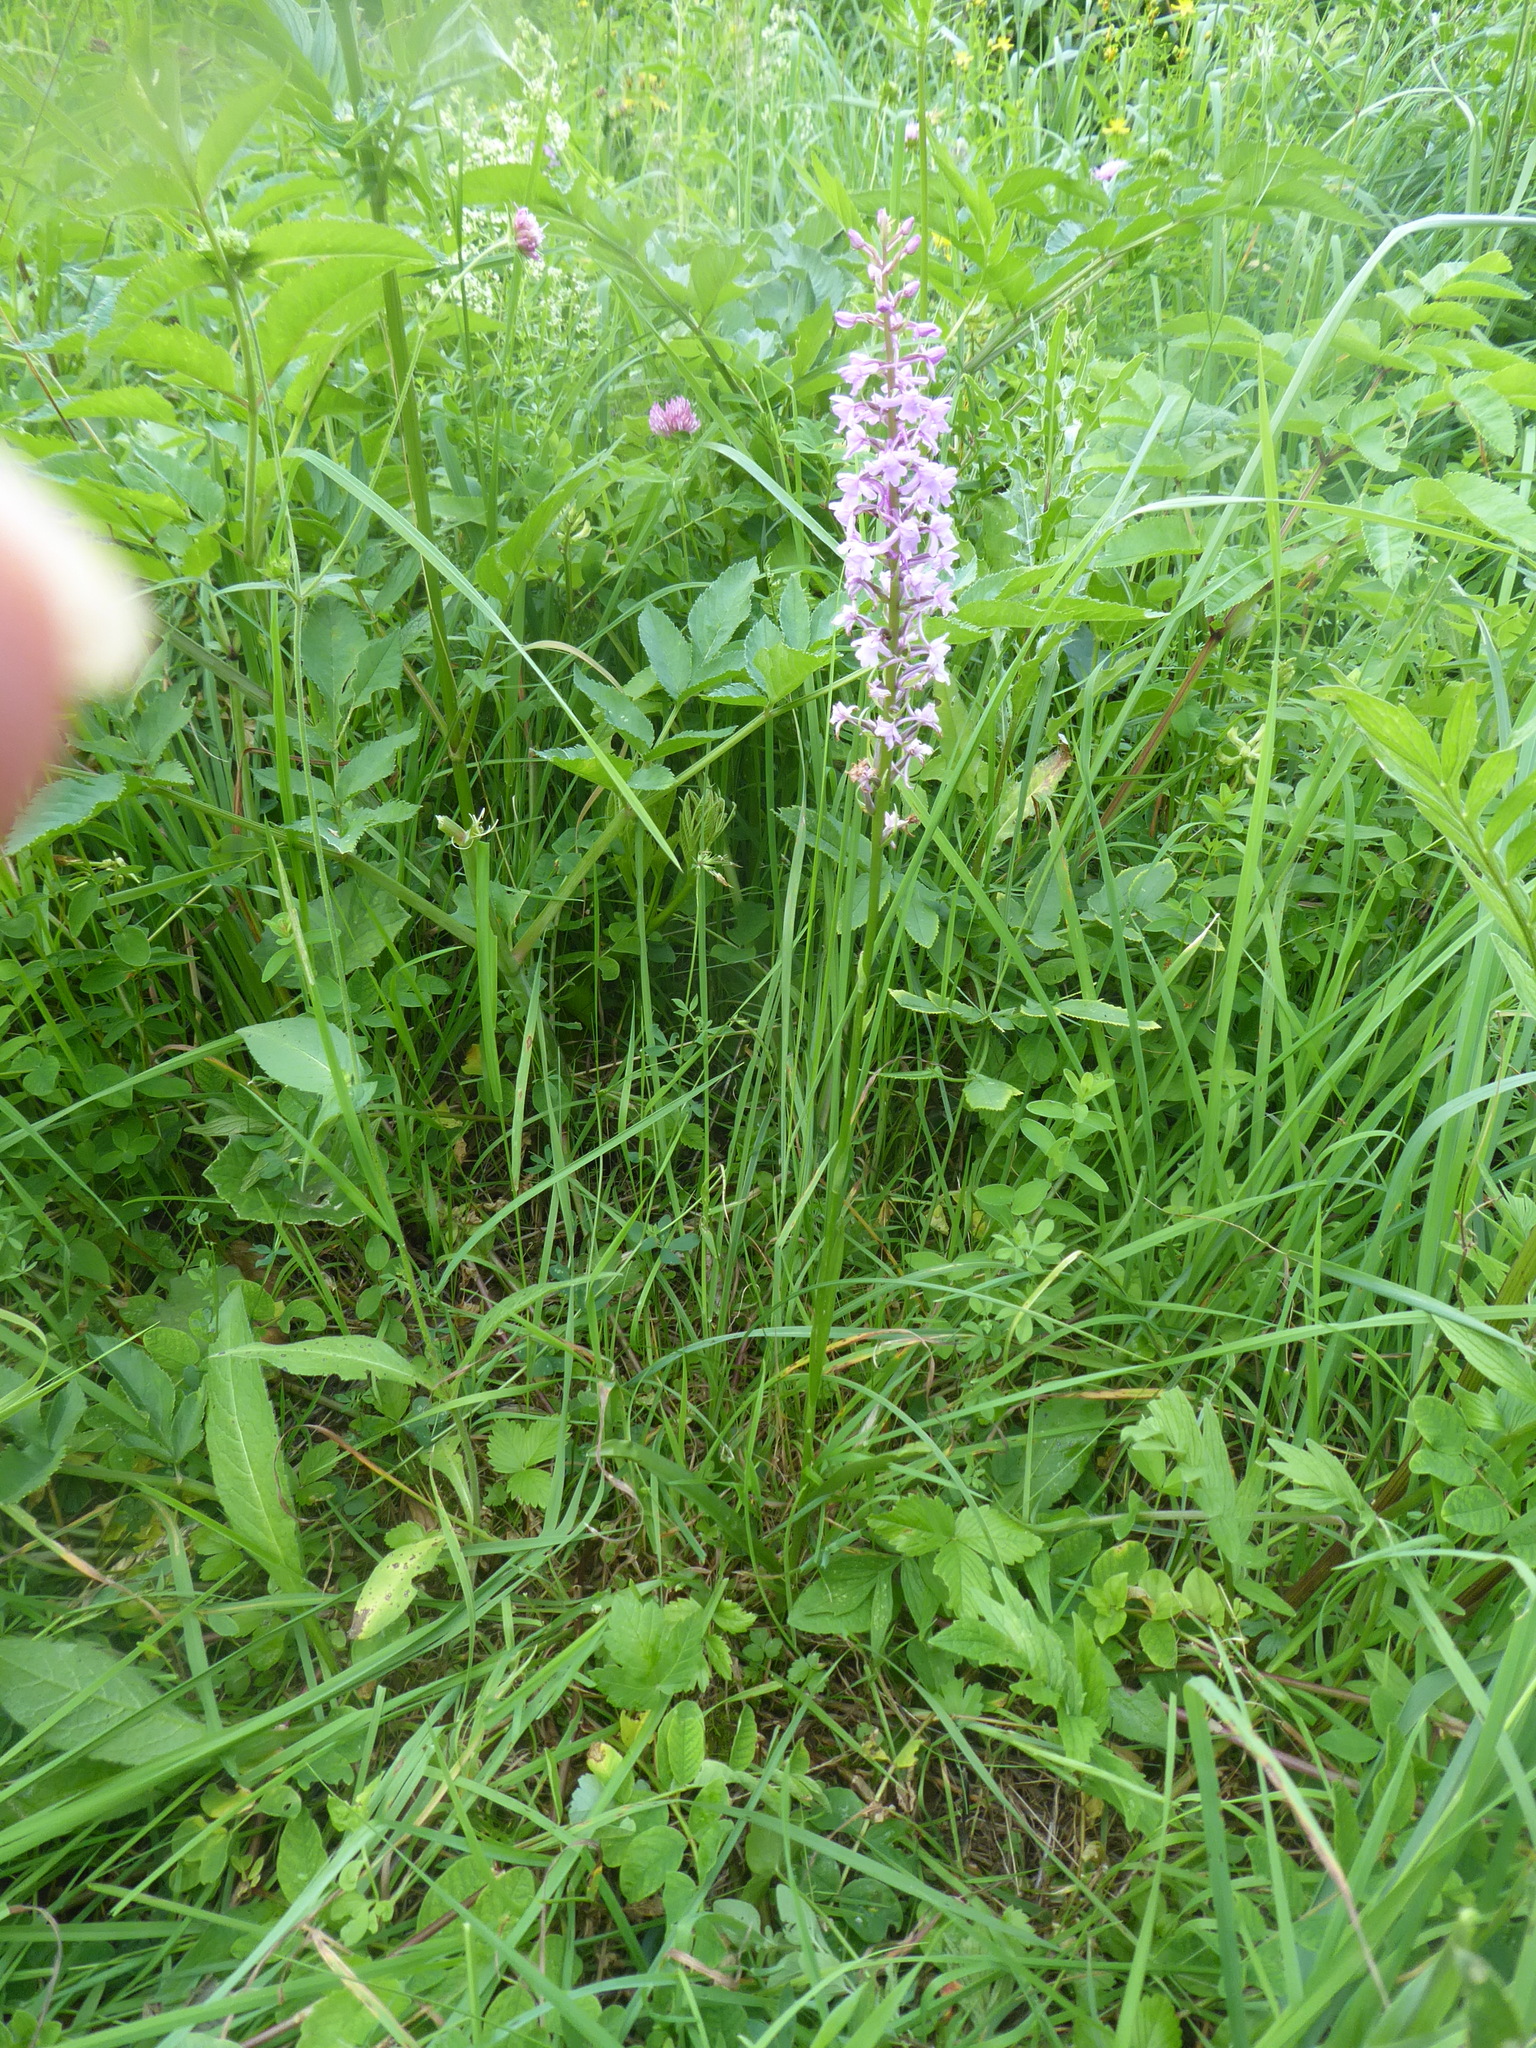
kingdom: Plantae
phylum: Tracheophyta
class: Liliopsida
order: Asparagales
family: Orchidaceae
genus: Gymnadenia
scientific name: Gymnadenia conopsea
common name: Fragrant orchid
